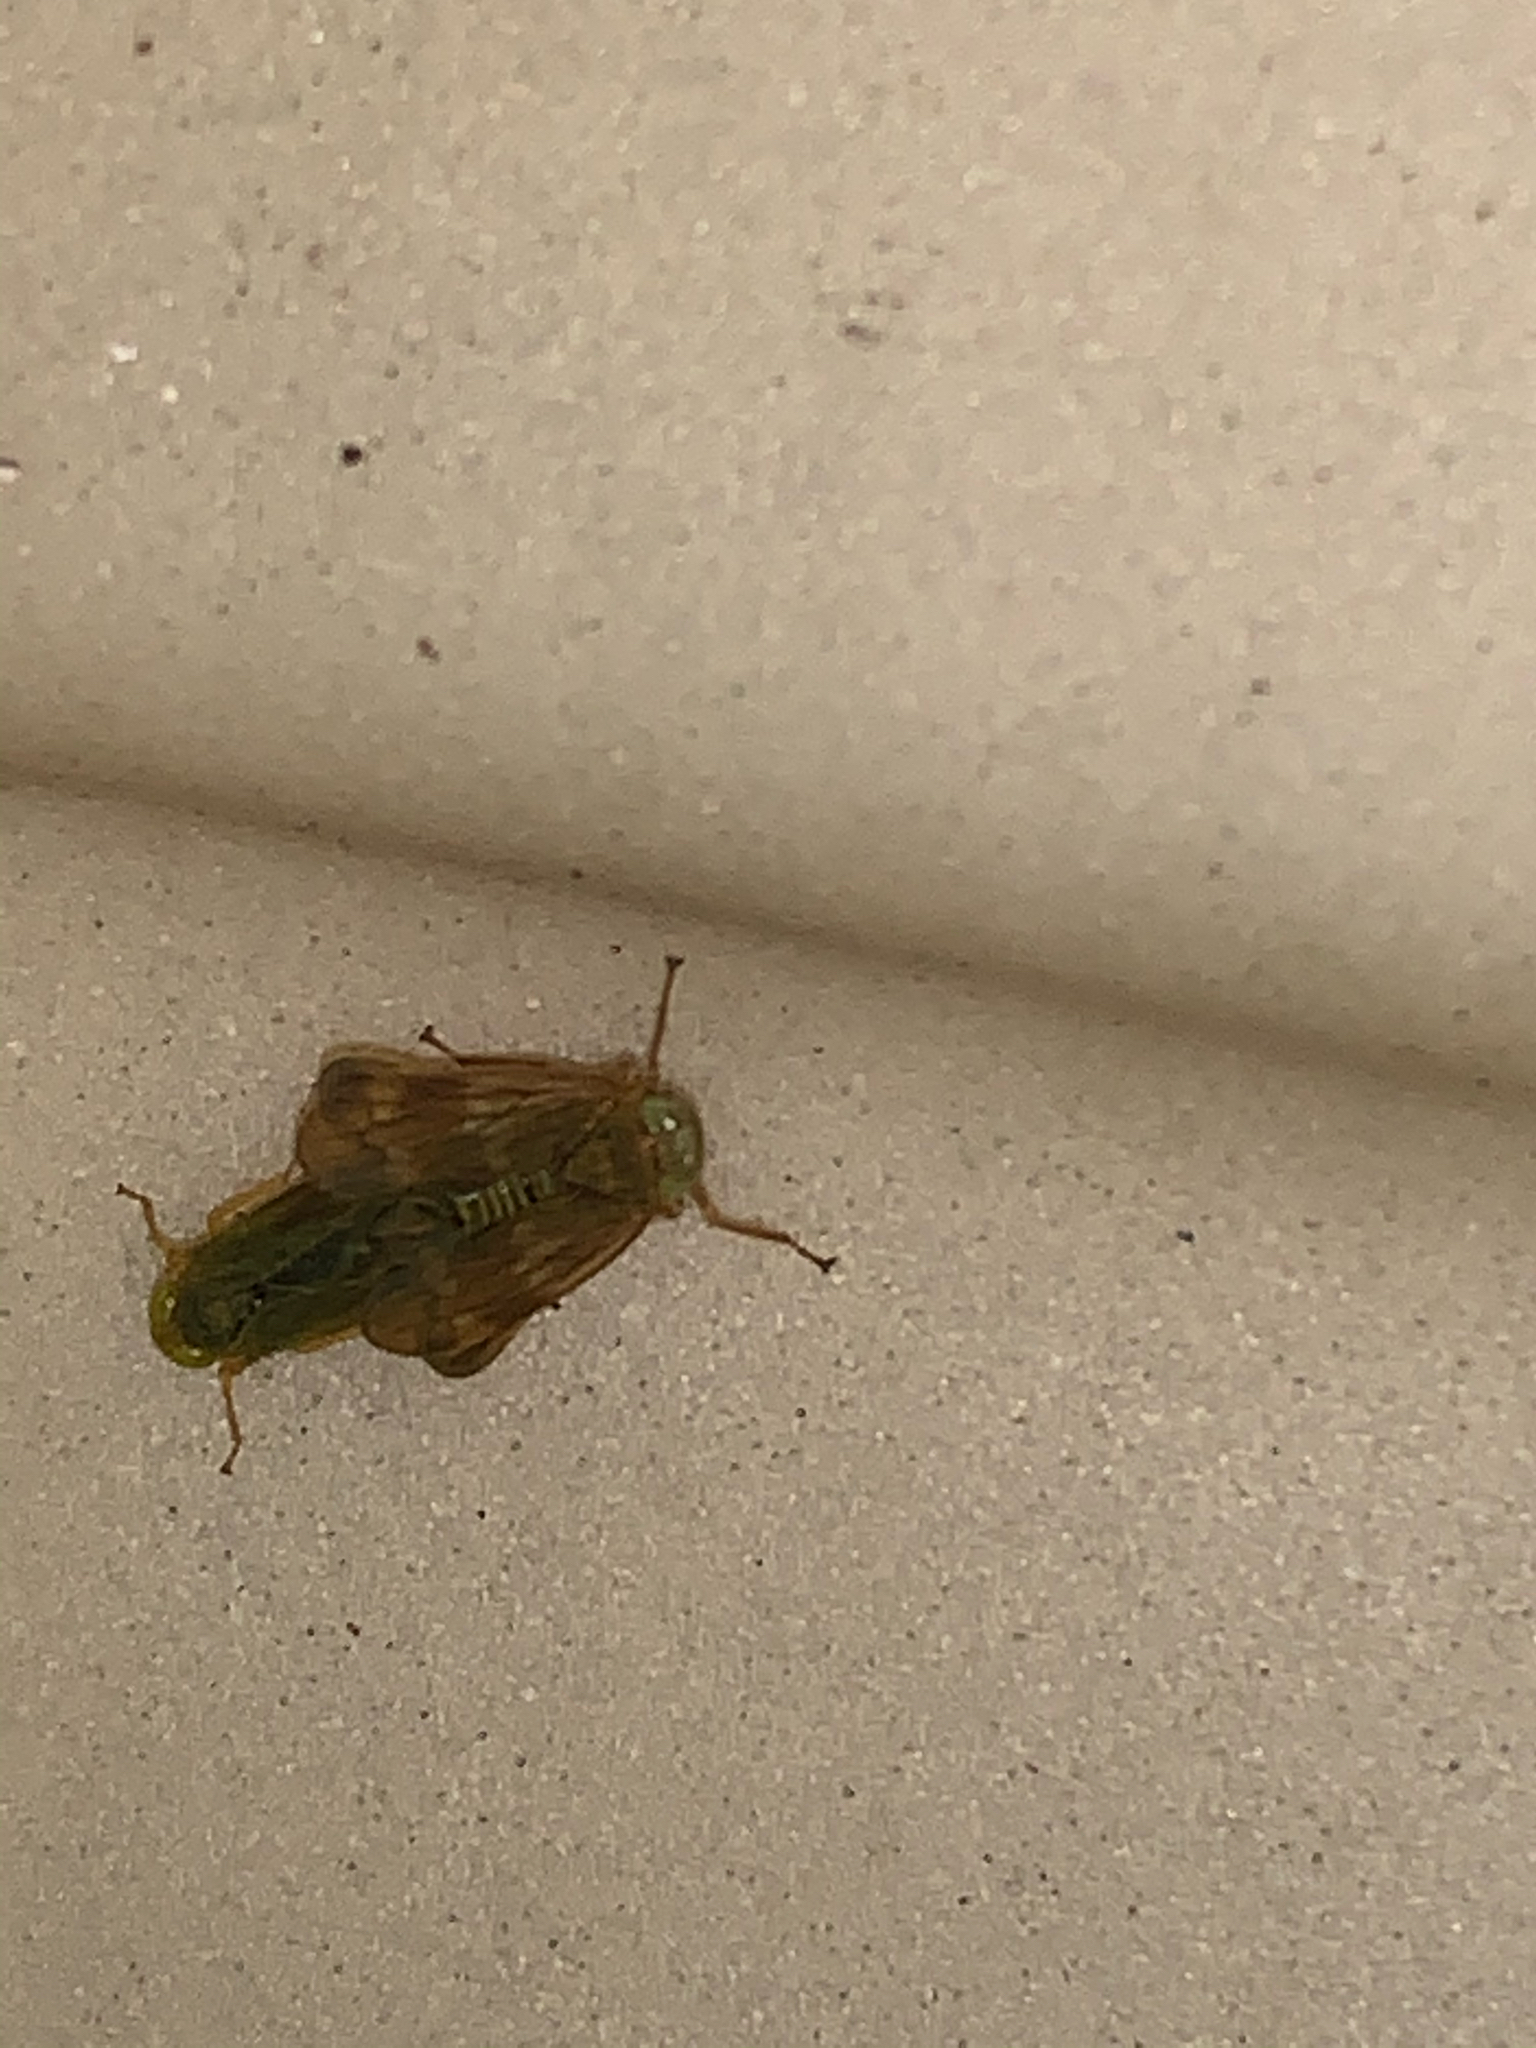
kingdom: Animalia
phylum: Arthropoda
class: Insecta
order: Hemiptera
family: Cicadellidae
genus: Jikradia
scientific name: Jikradia olitoria
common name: Coppery leafhopper
